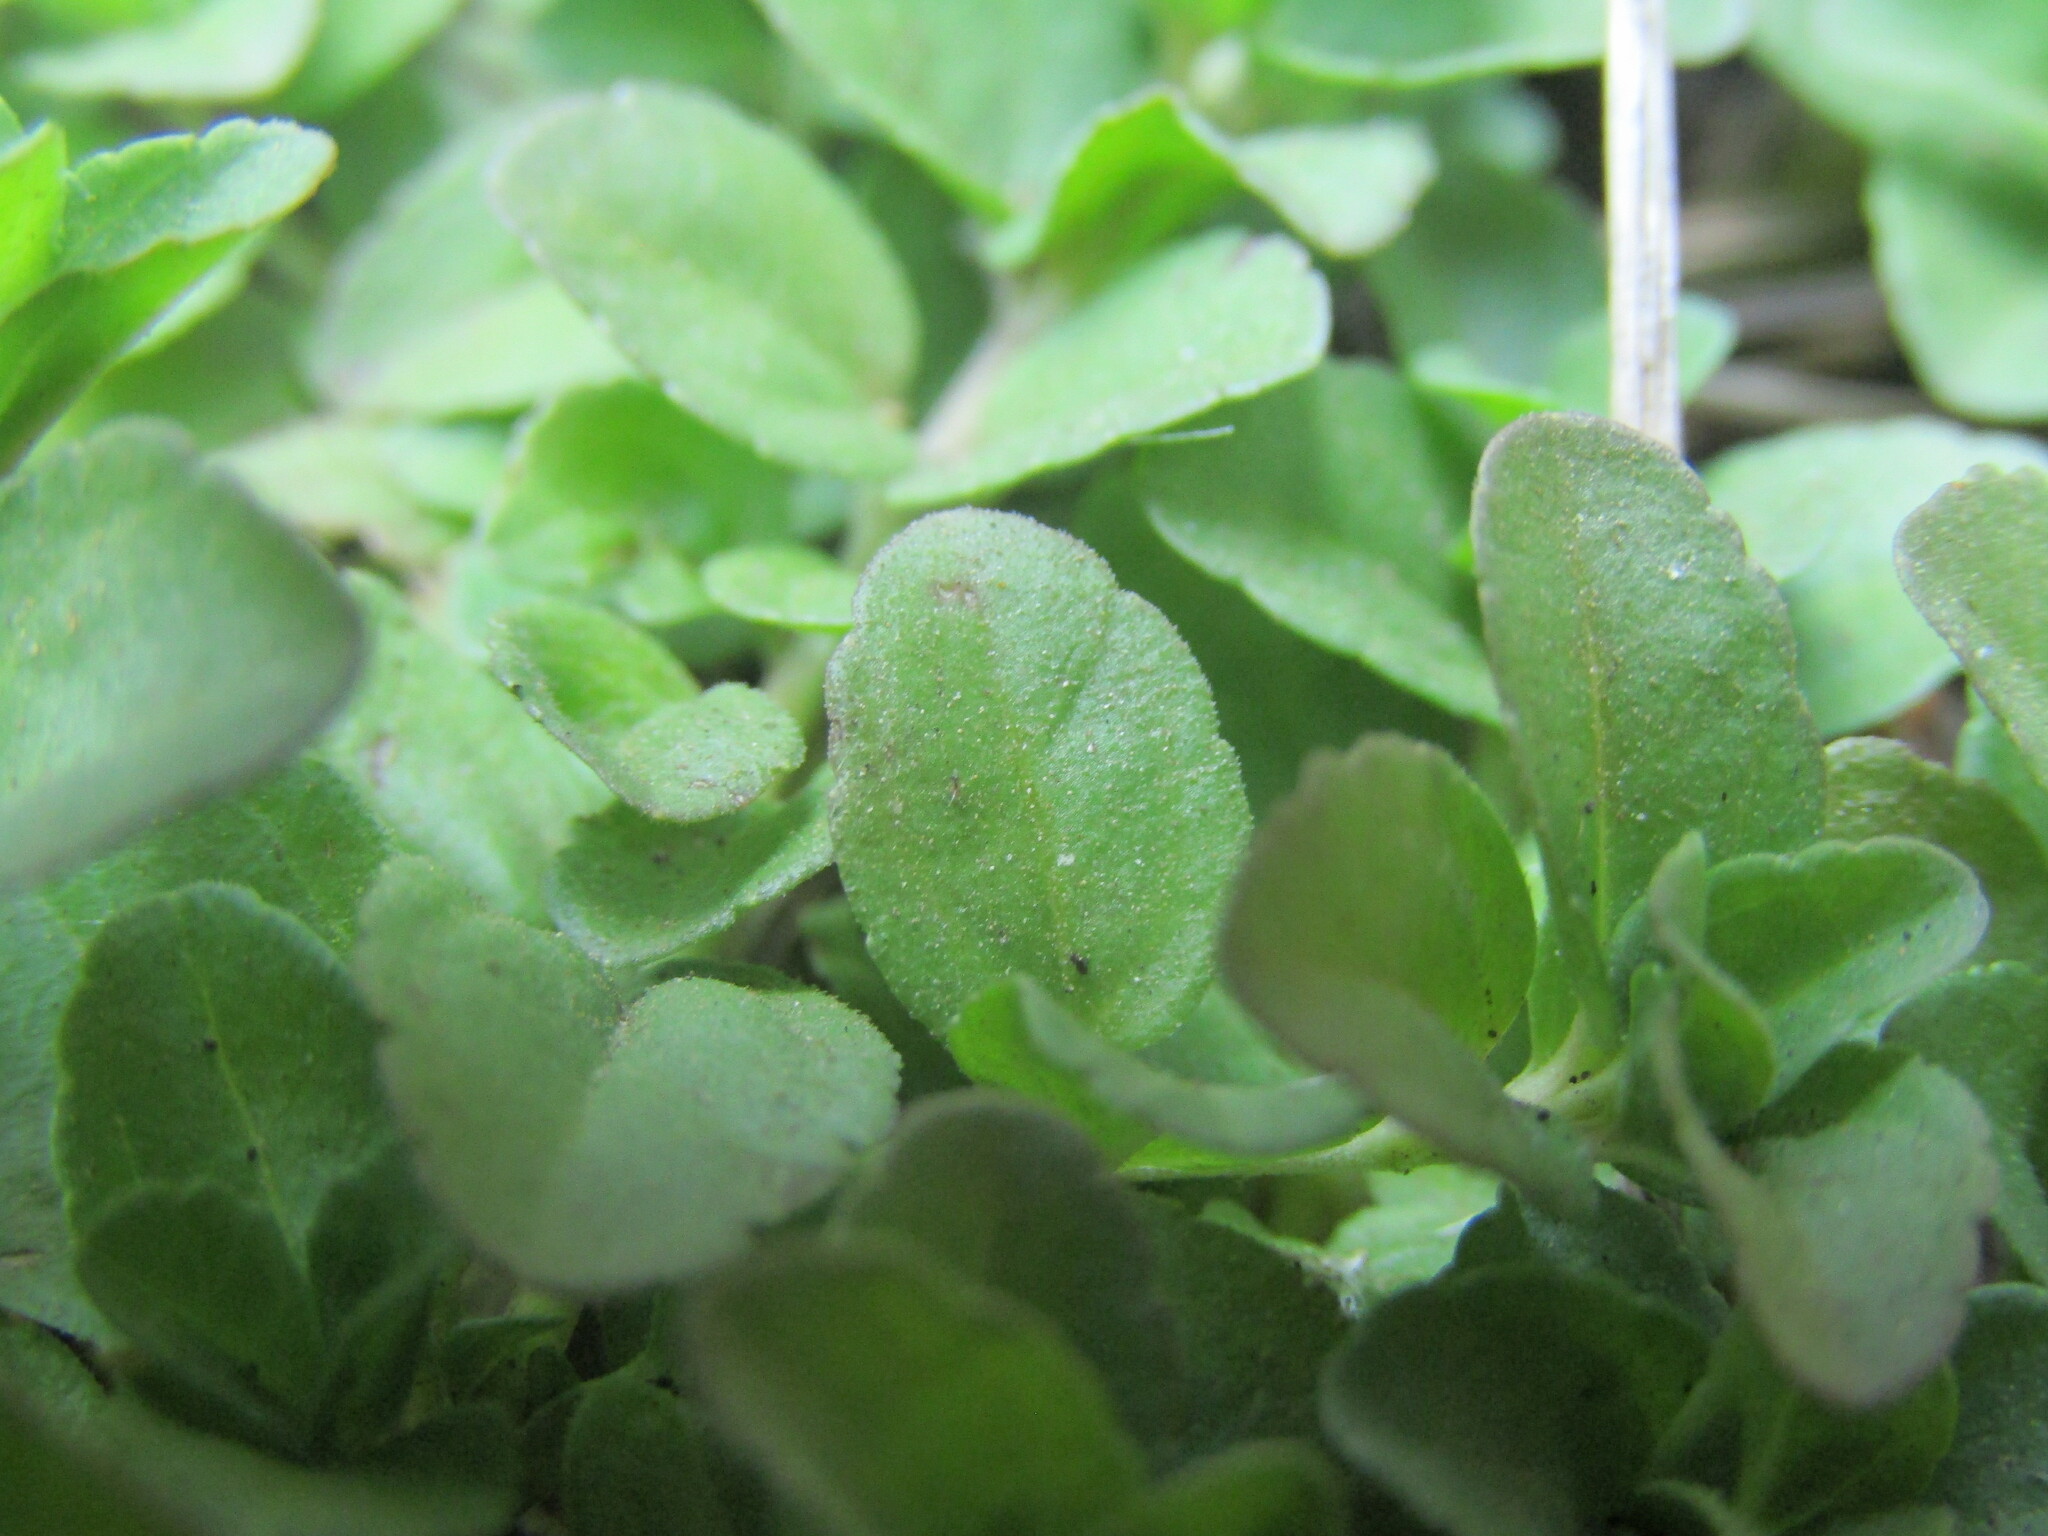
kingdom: Plantae
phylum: Tracheophyta
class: Magnoliopsida
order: Lamiales
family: Plantaginaceae
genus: Veronica
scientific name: Veronica serpyllifolia
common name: Thyme-leaved speedwell
